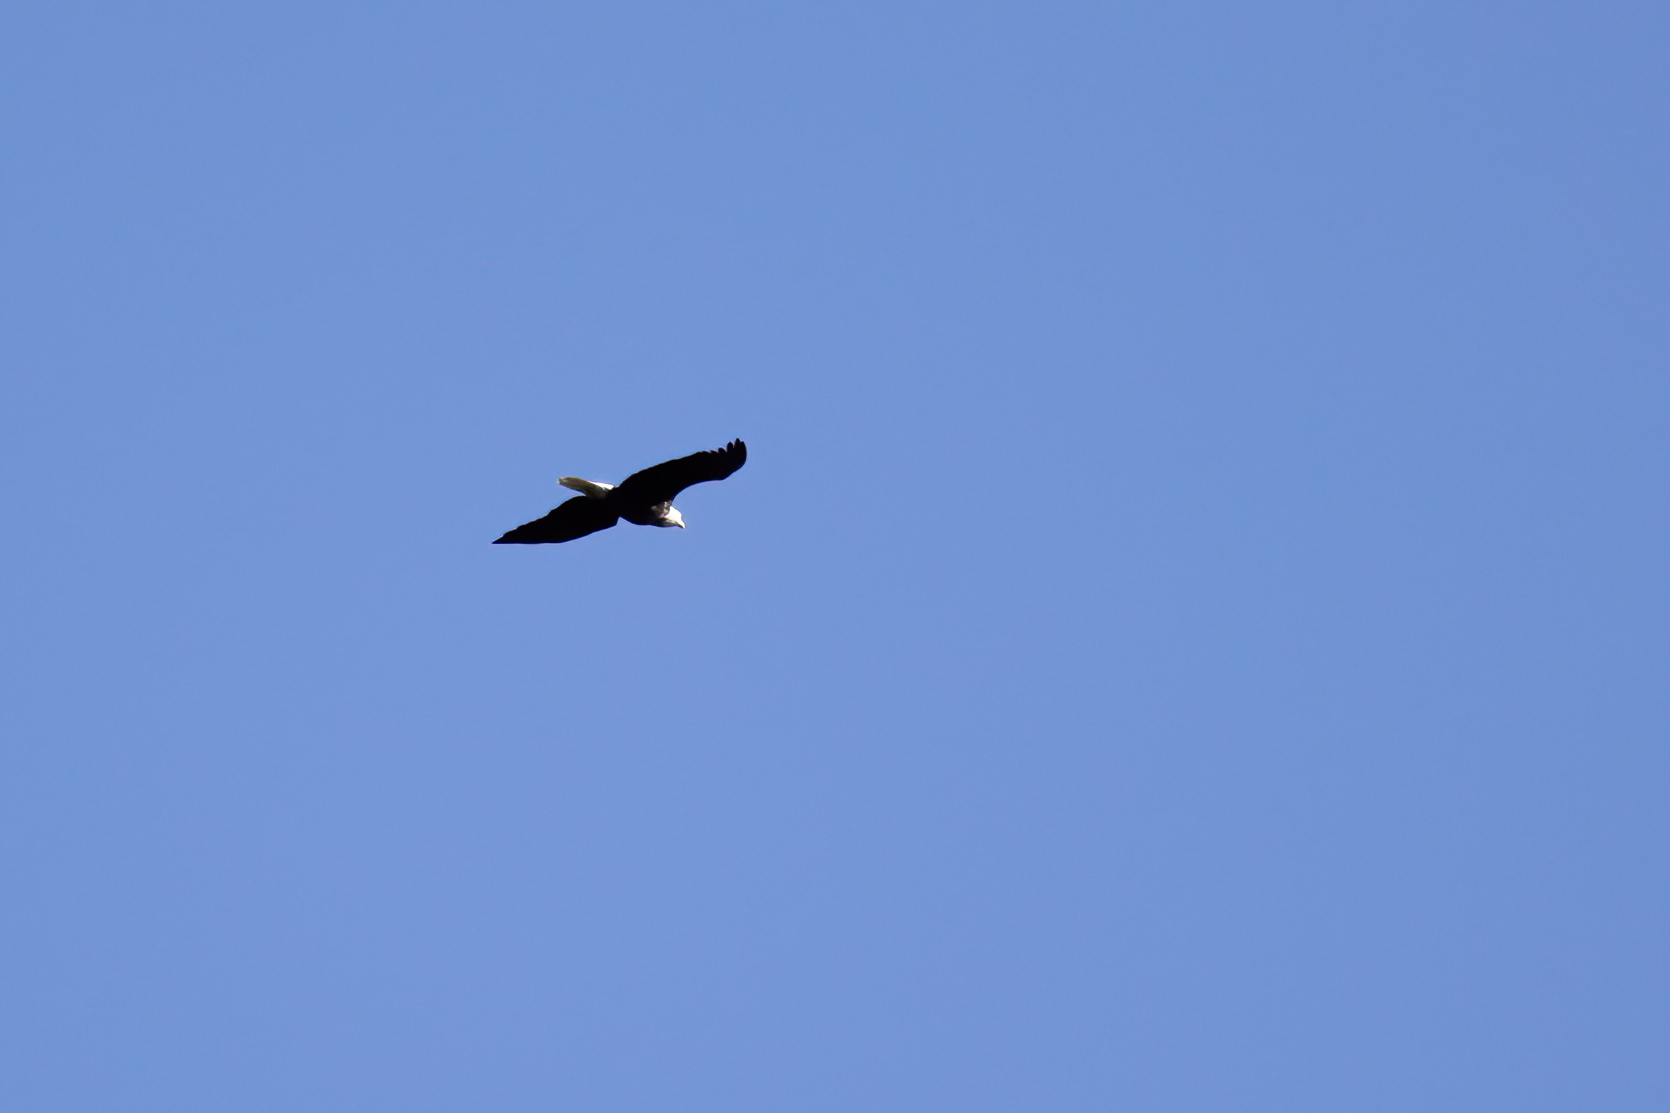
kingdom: Animalia
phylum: Chordata
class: Aves
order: Accipitriformes
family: Accipitridae
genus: Haliaeetus
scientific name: Haliaeetus leucocephalus
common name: Bald eagle
